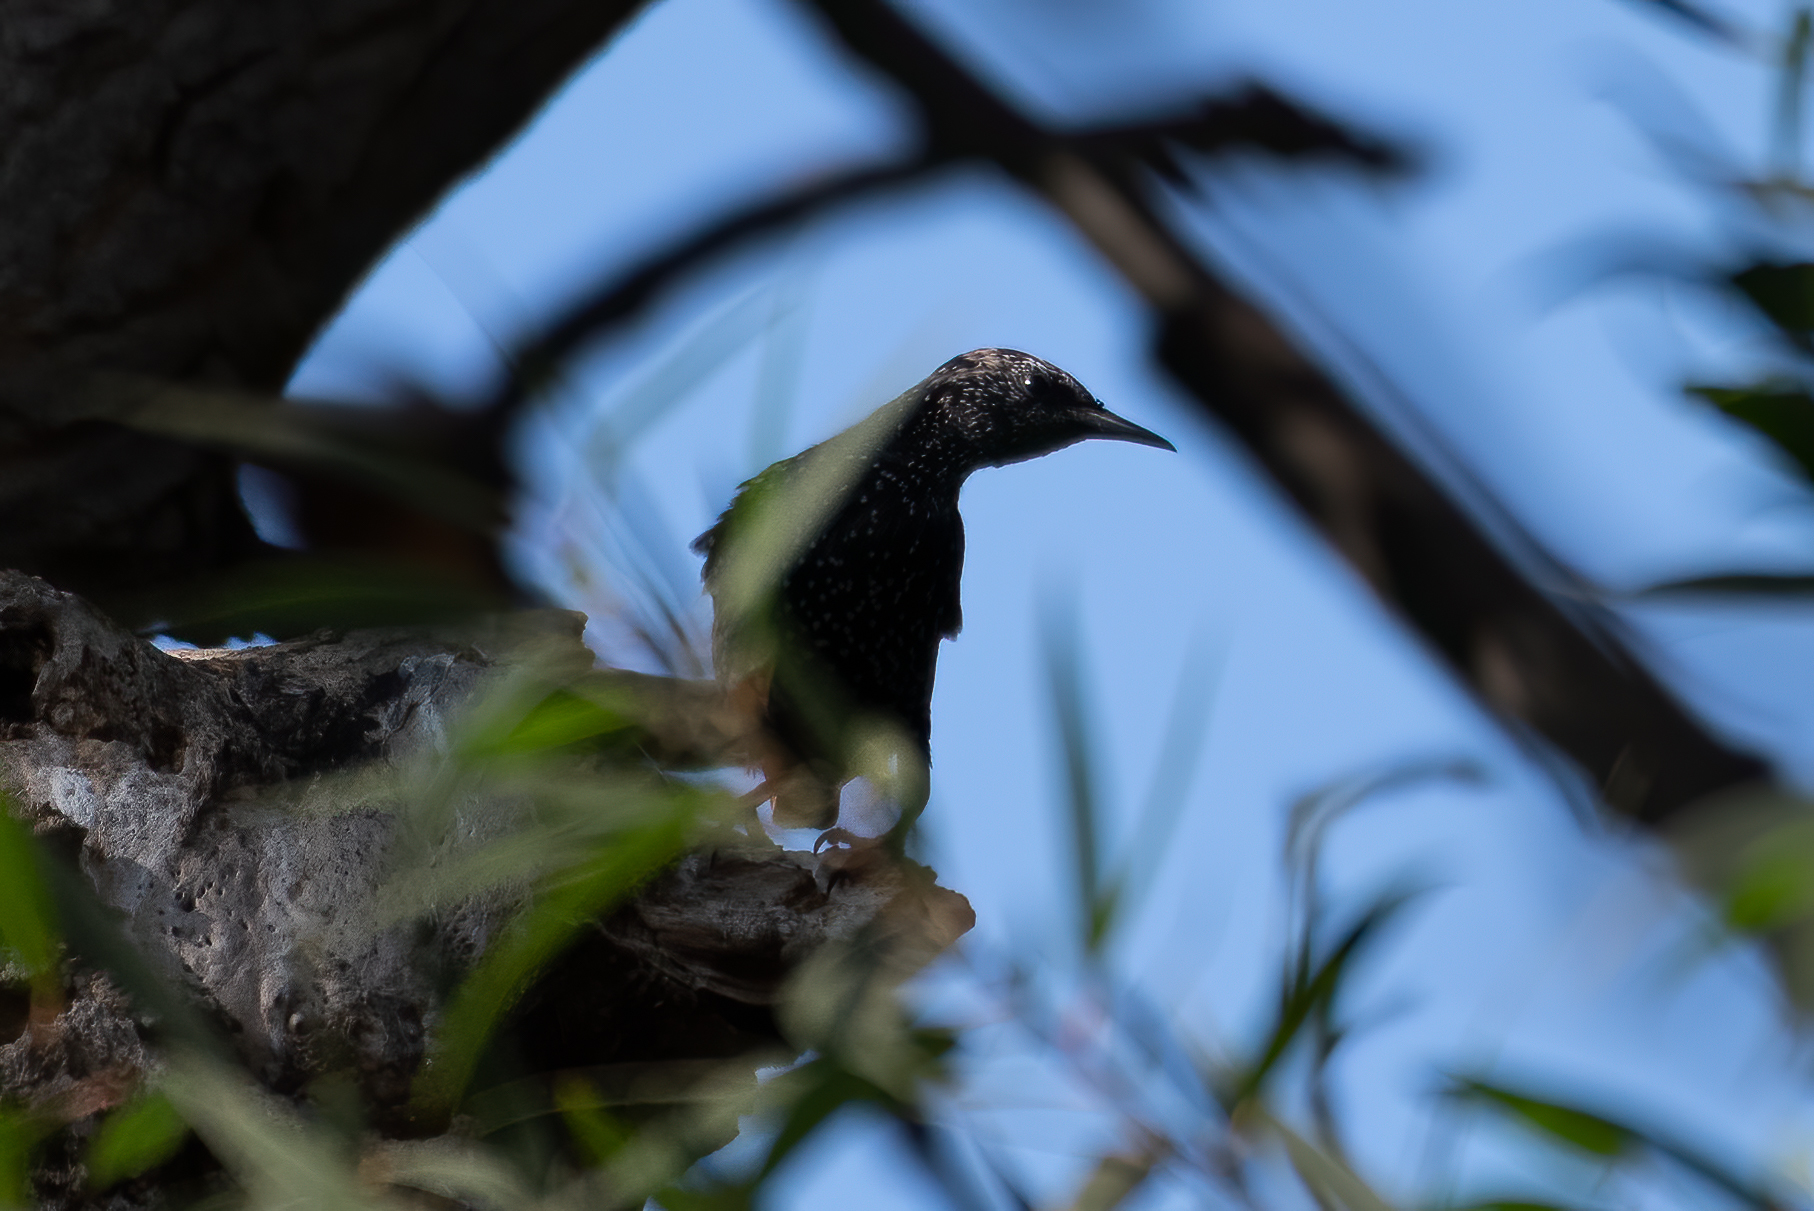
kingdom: Animalia
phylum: Chordata
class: Aves
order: Passeriformes
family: Sturnidae
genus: Sturnus
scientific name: Sturnus vulgaris
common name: Common starling
